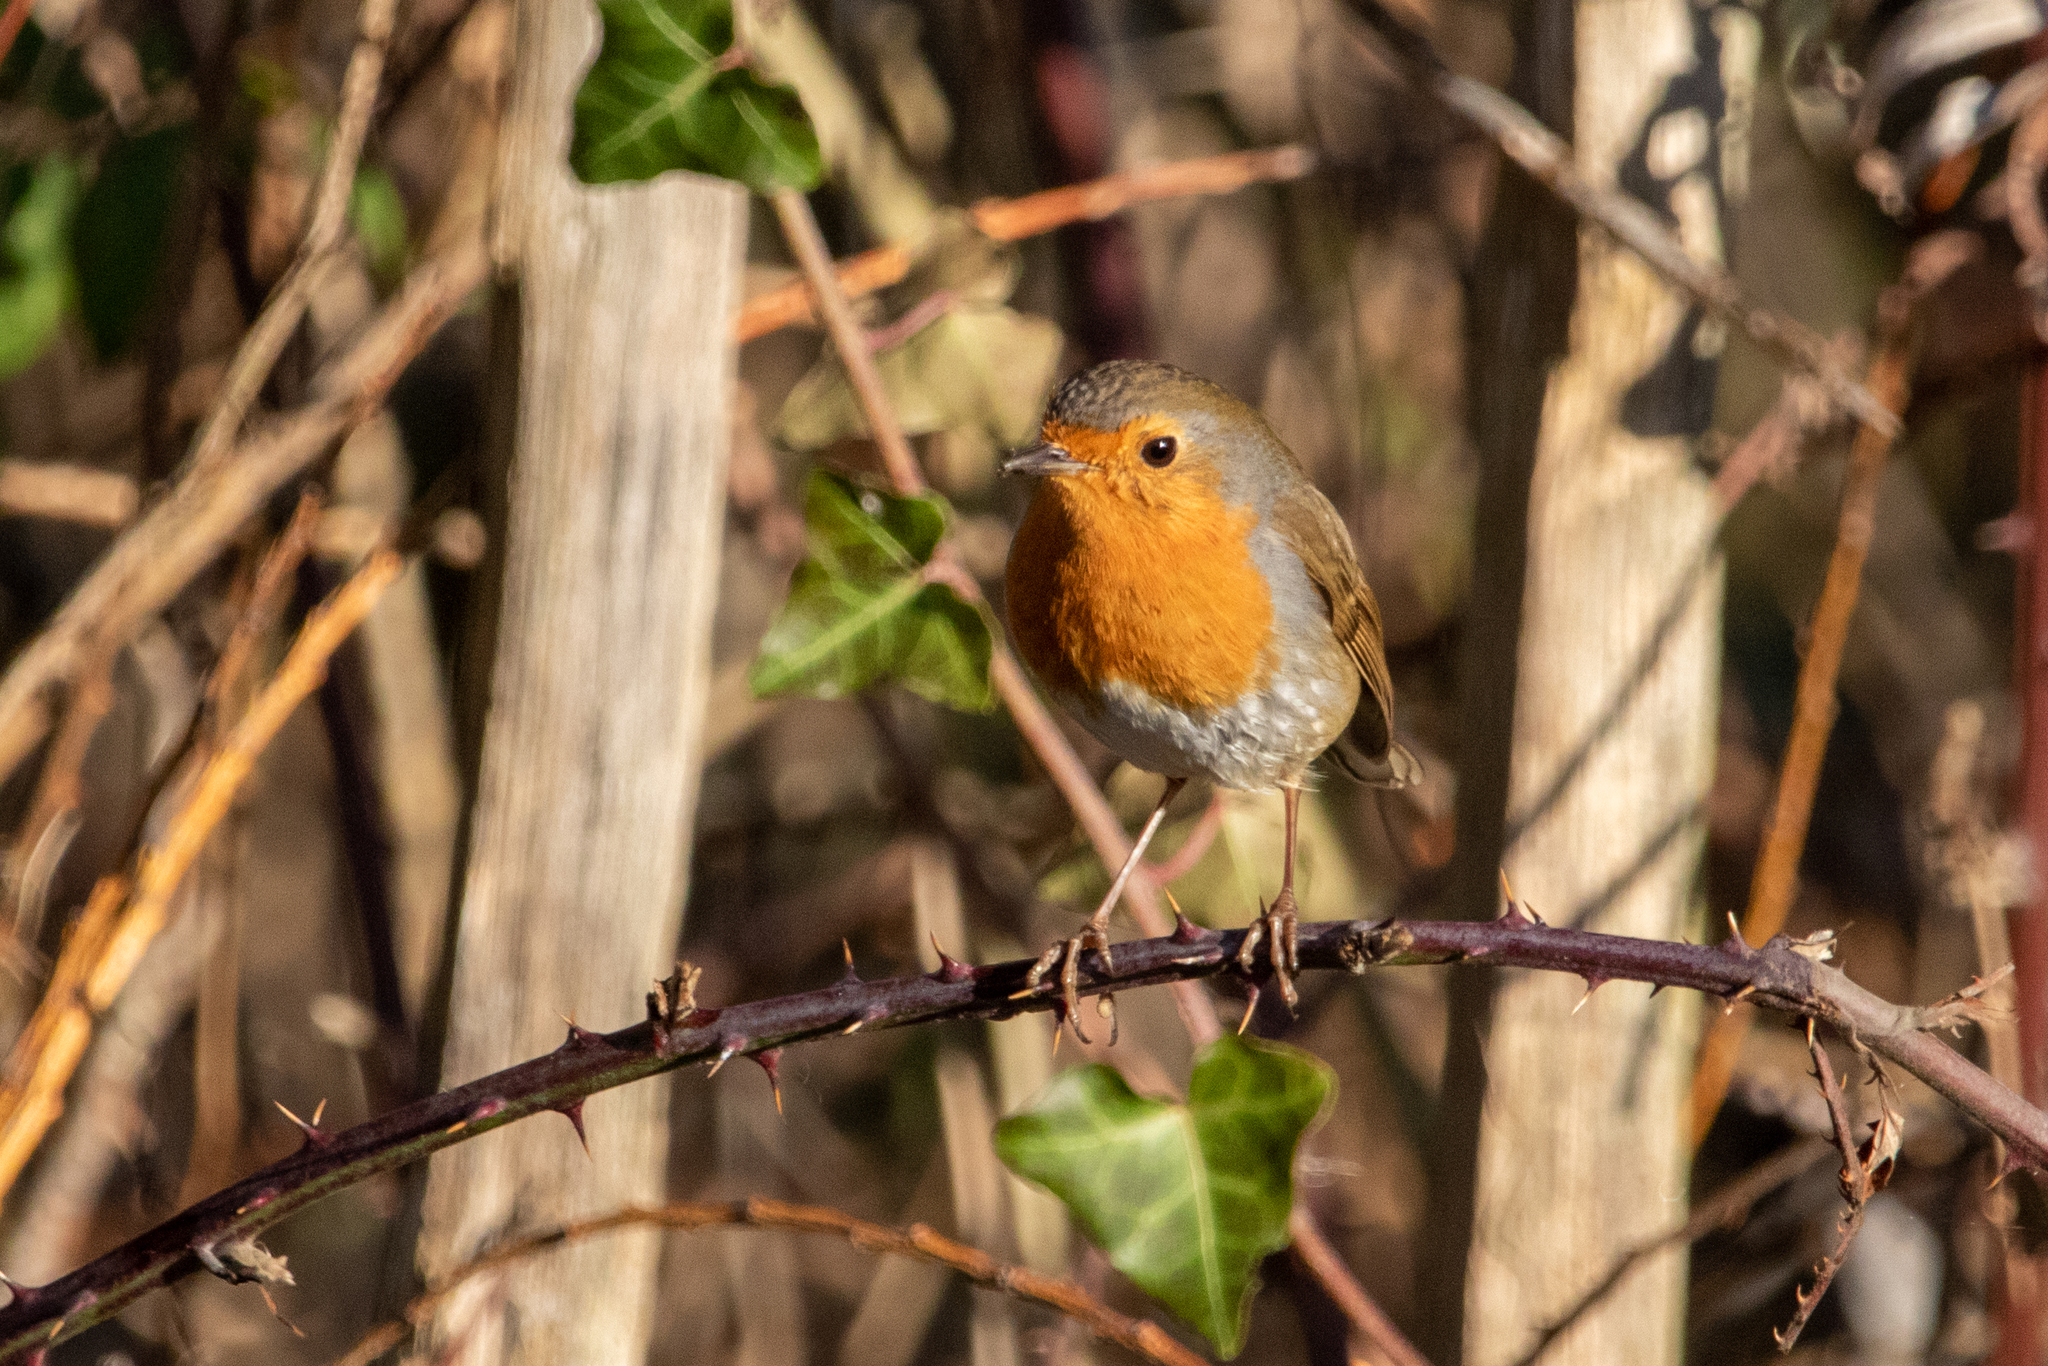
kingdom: Animalia
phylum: Chordata
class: Aves
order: Passeriformes
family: Muscicapidae
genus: Erithacus
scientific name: Erithacus rubecula
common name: European robin
